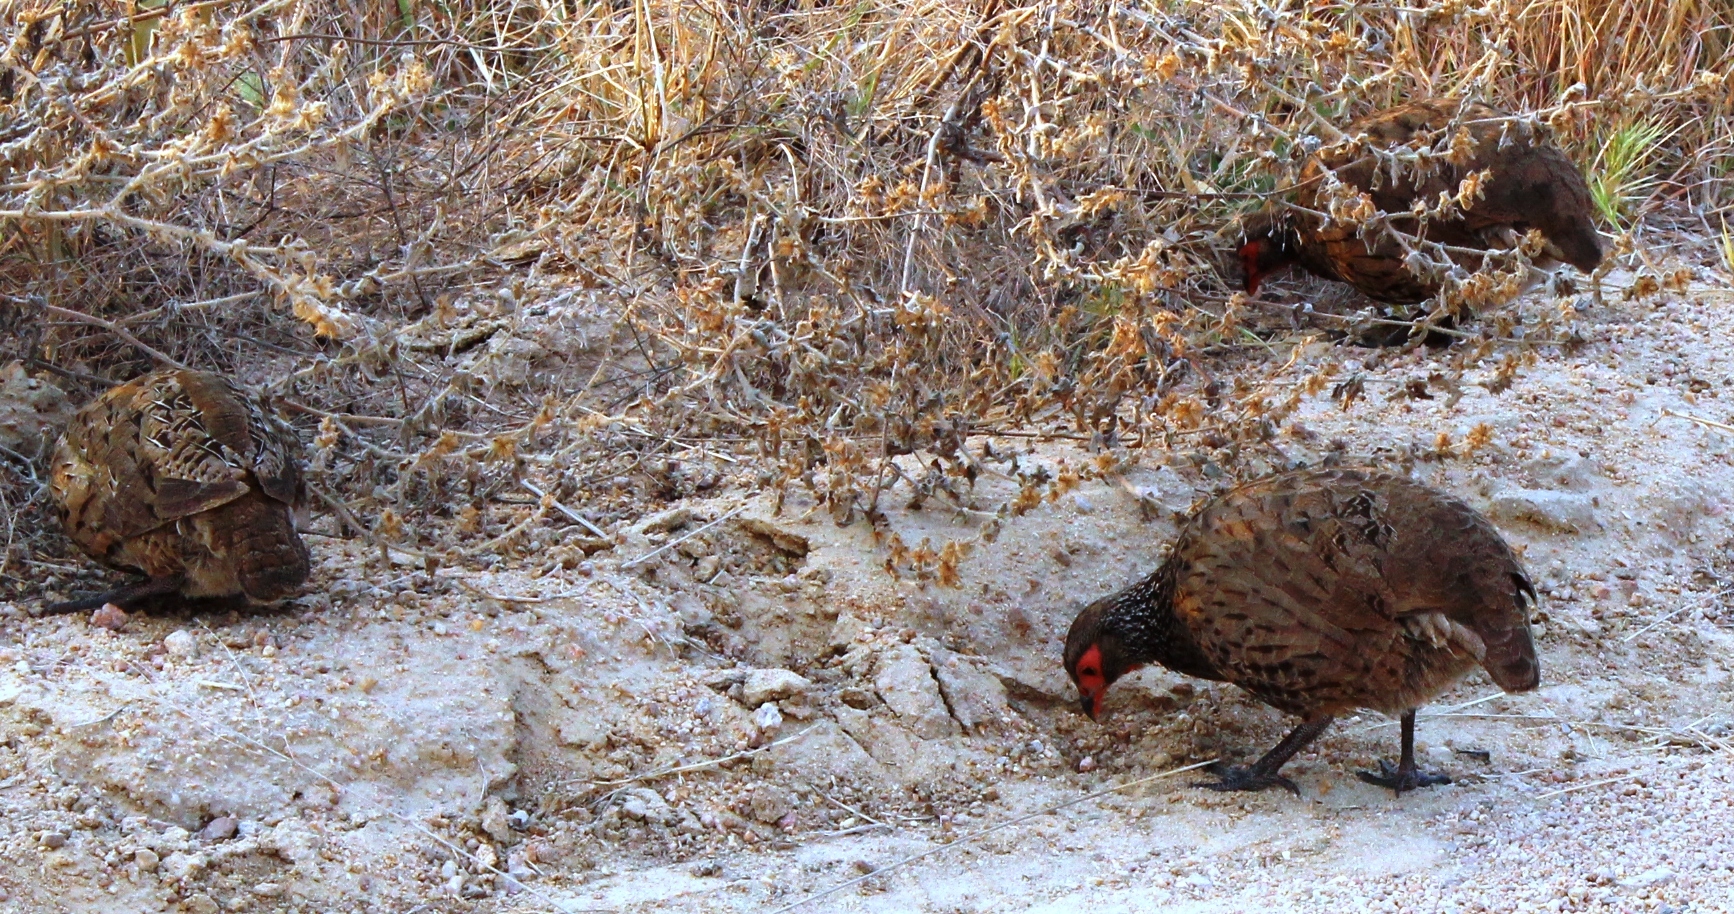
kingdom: Animalia
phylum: Chordata
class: Aves
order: Galliformes
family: Phasianidae
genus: Pternistis
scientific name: Pternistis swainsonii
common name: Swainson's spurfowl
